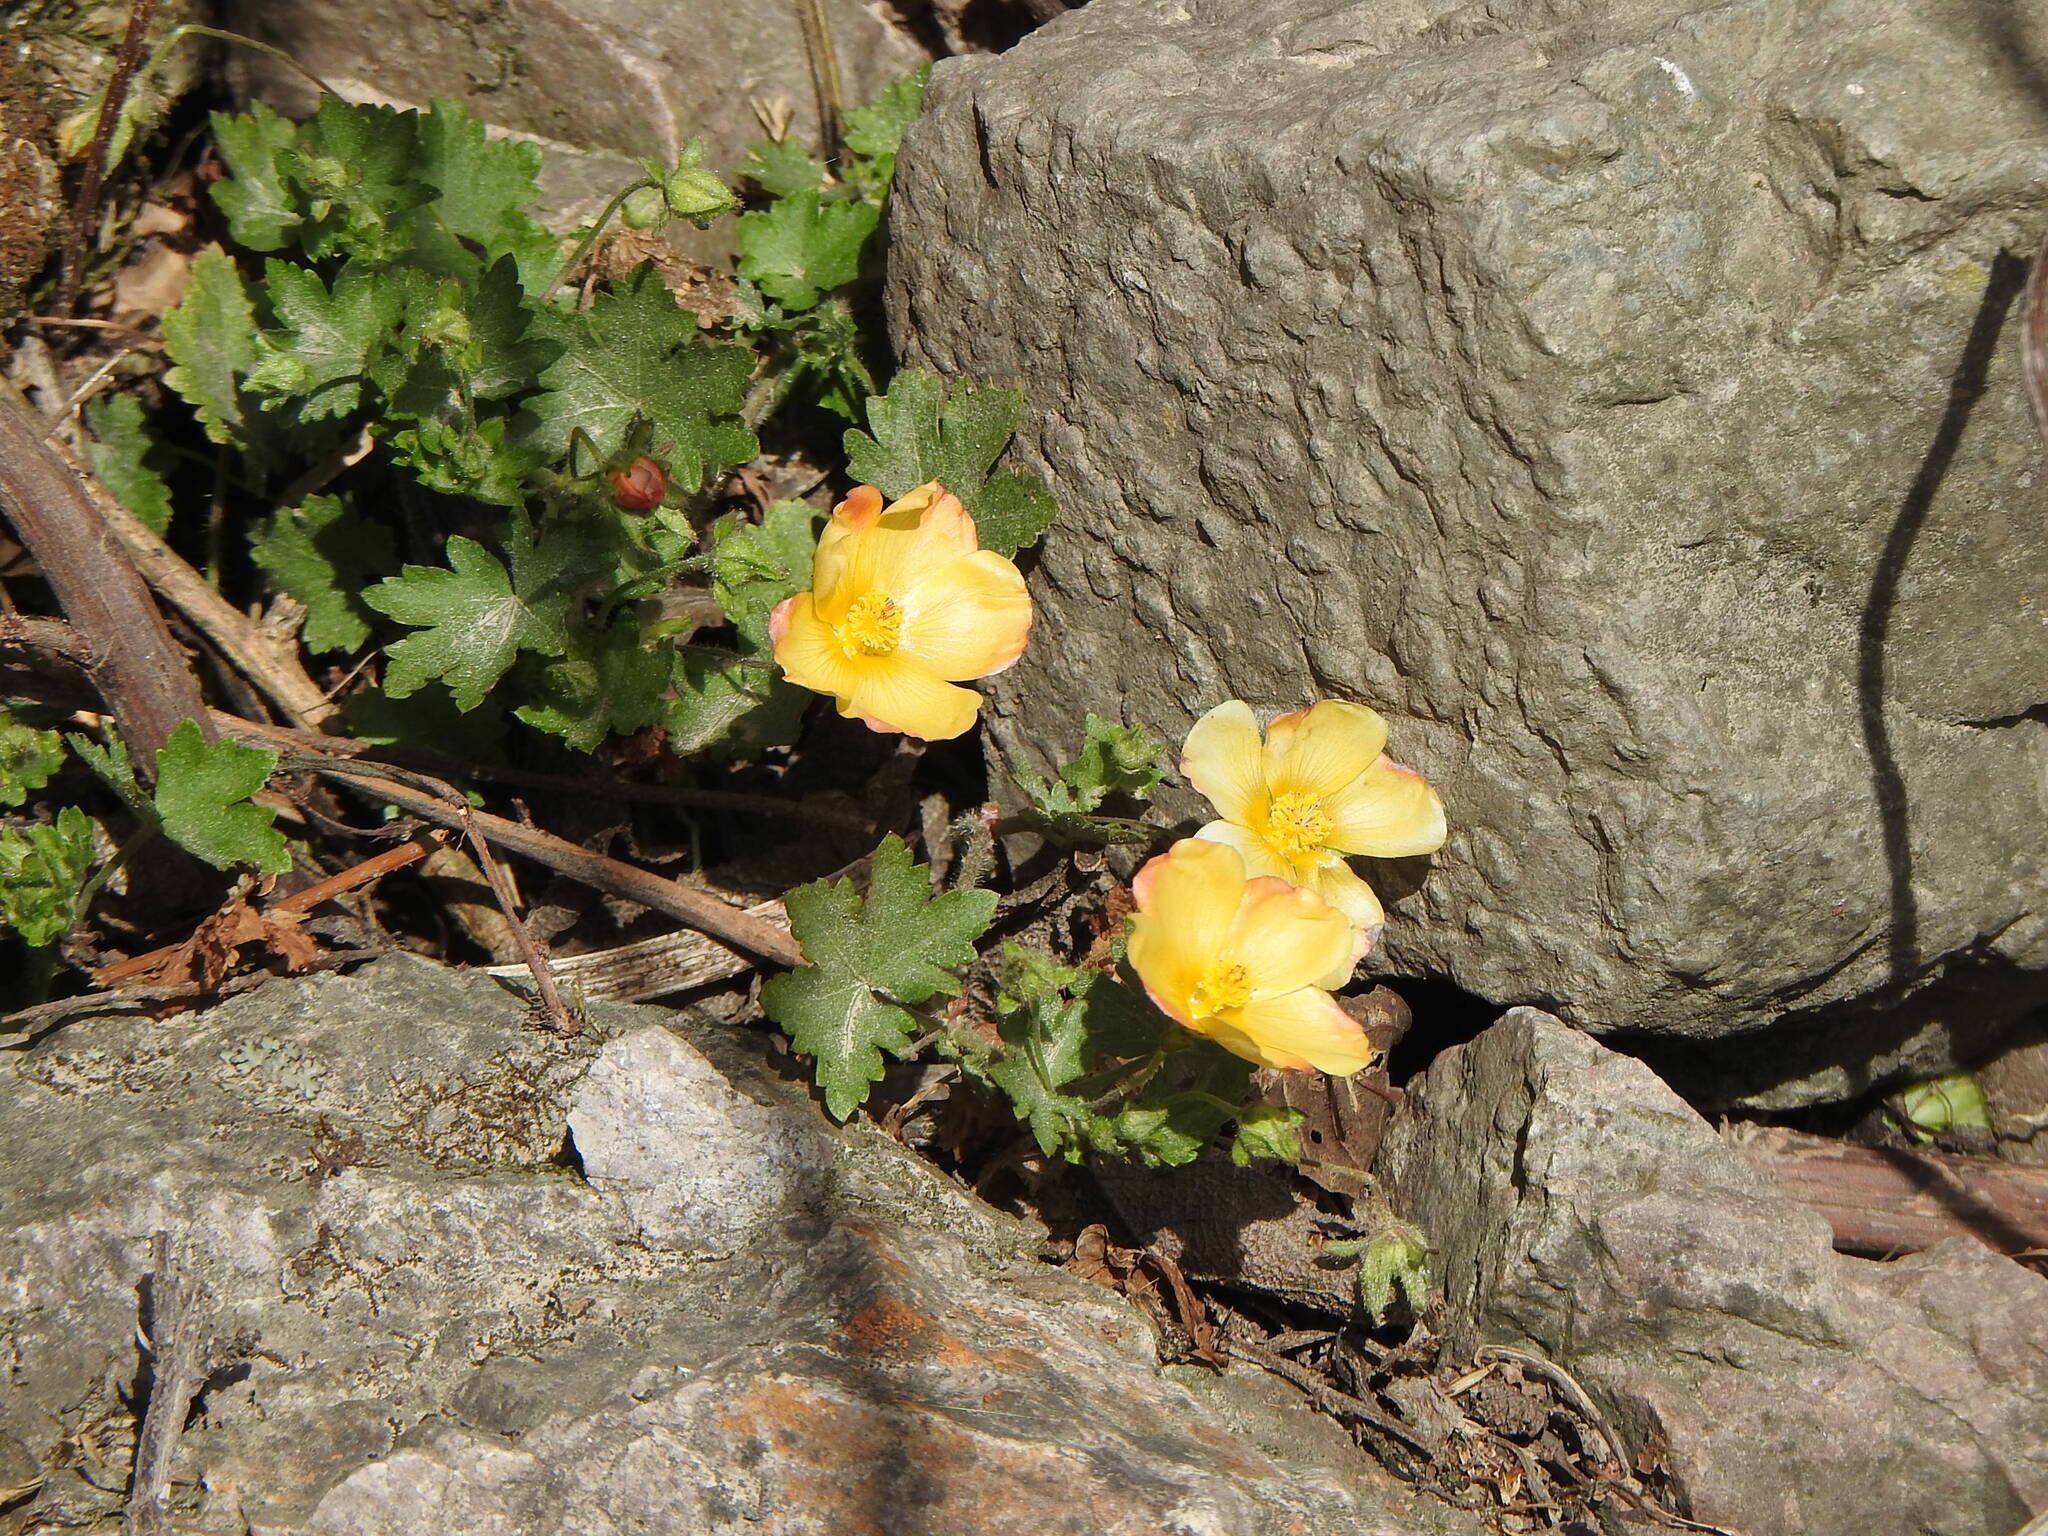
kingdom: Plantae
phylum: Tracheophyta
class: Magnoliopsida
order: Malvales
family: Malvaceae
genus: Modiolastrum
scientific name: Modiolastrum malvifolium
